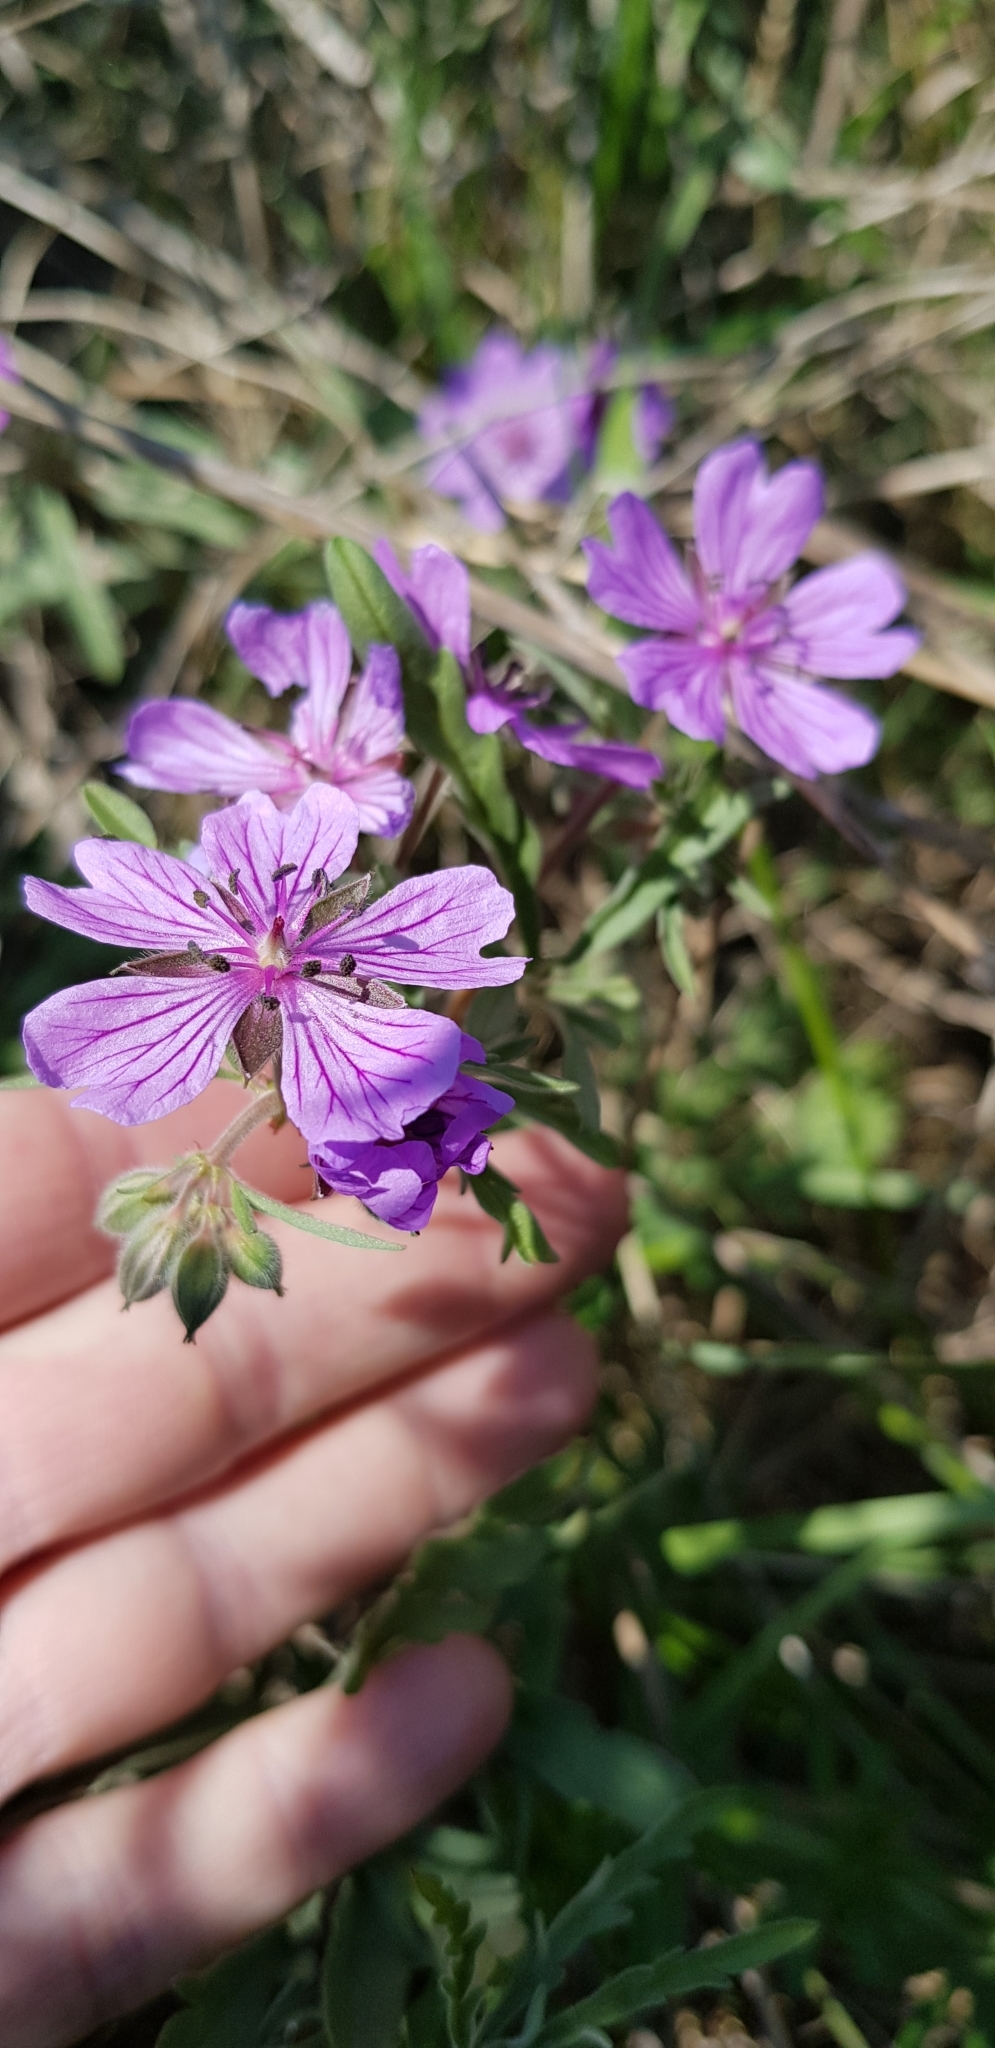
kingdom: Plantae
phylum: Tracheophyta
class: Magnoliopsida
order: Geraniales
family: Geraniaceae
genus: Geranium
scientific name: Geranium tuberosum
